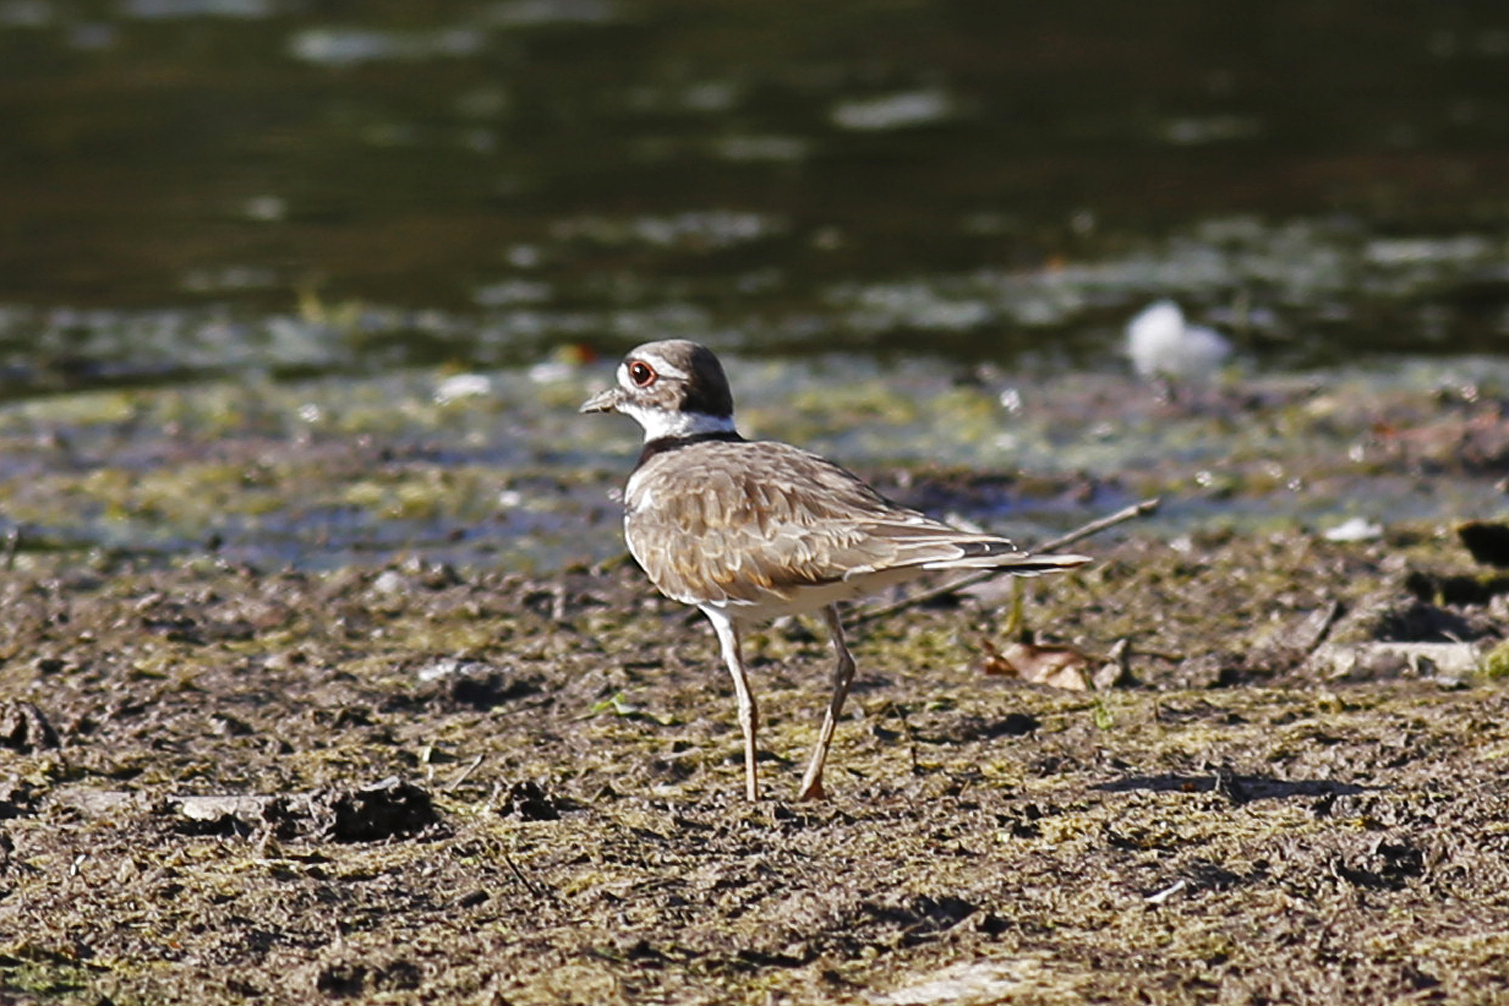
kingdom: Animalia
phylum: Chordata
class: Aves
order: Charadriiformes
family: Charadriidae
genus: Charadrius
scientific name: Charadrius vociferus
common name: Killdeer
